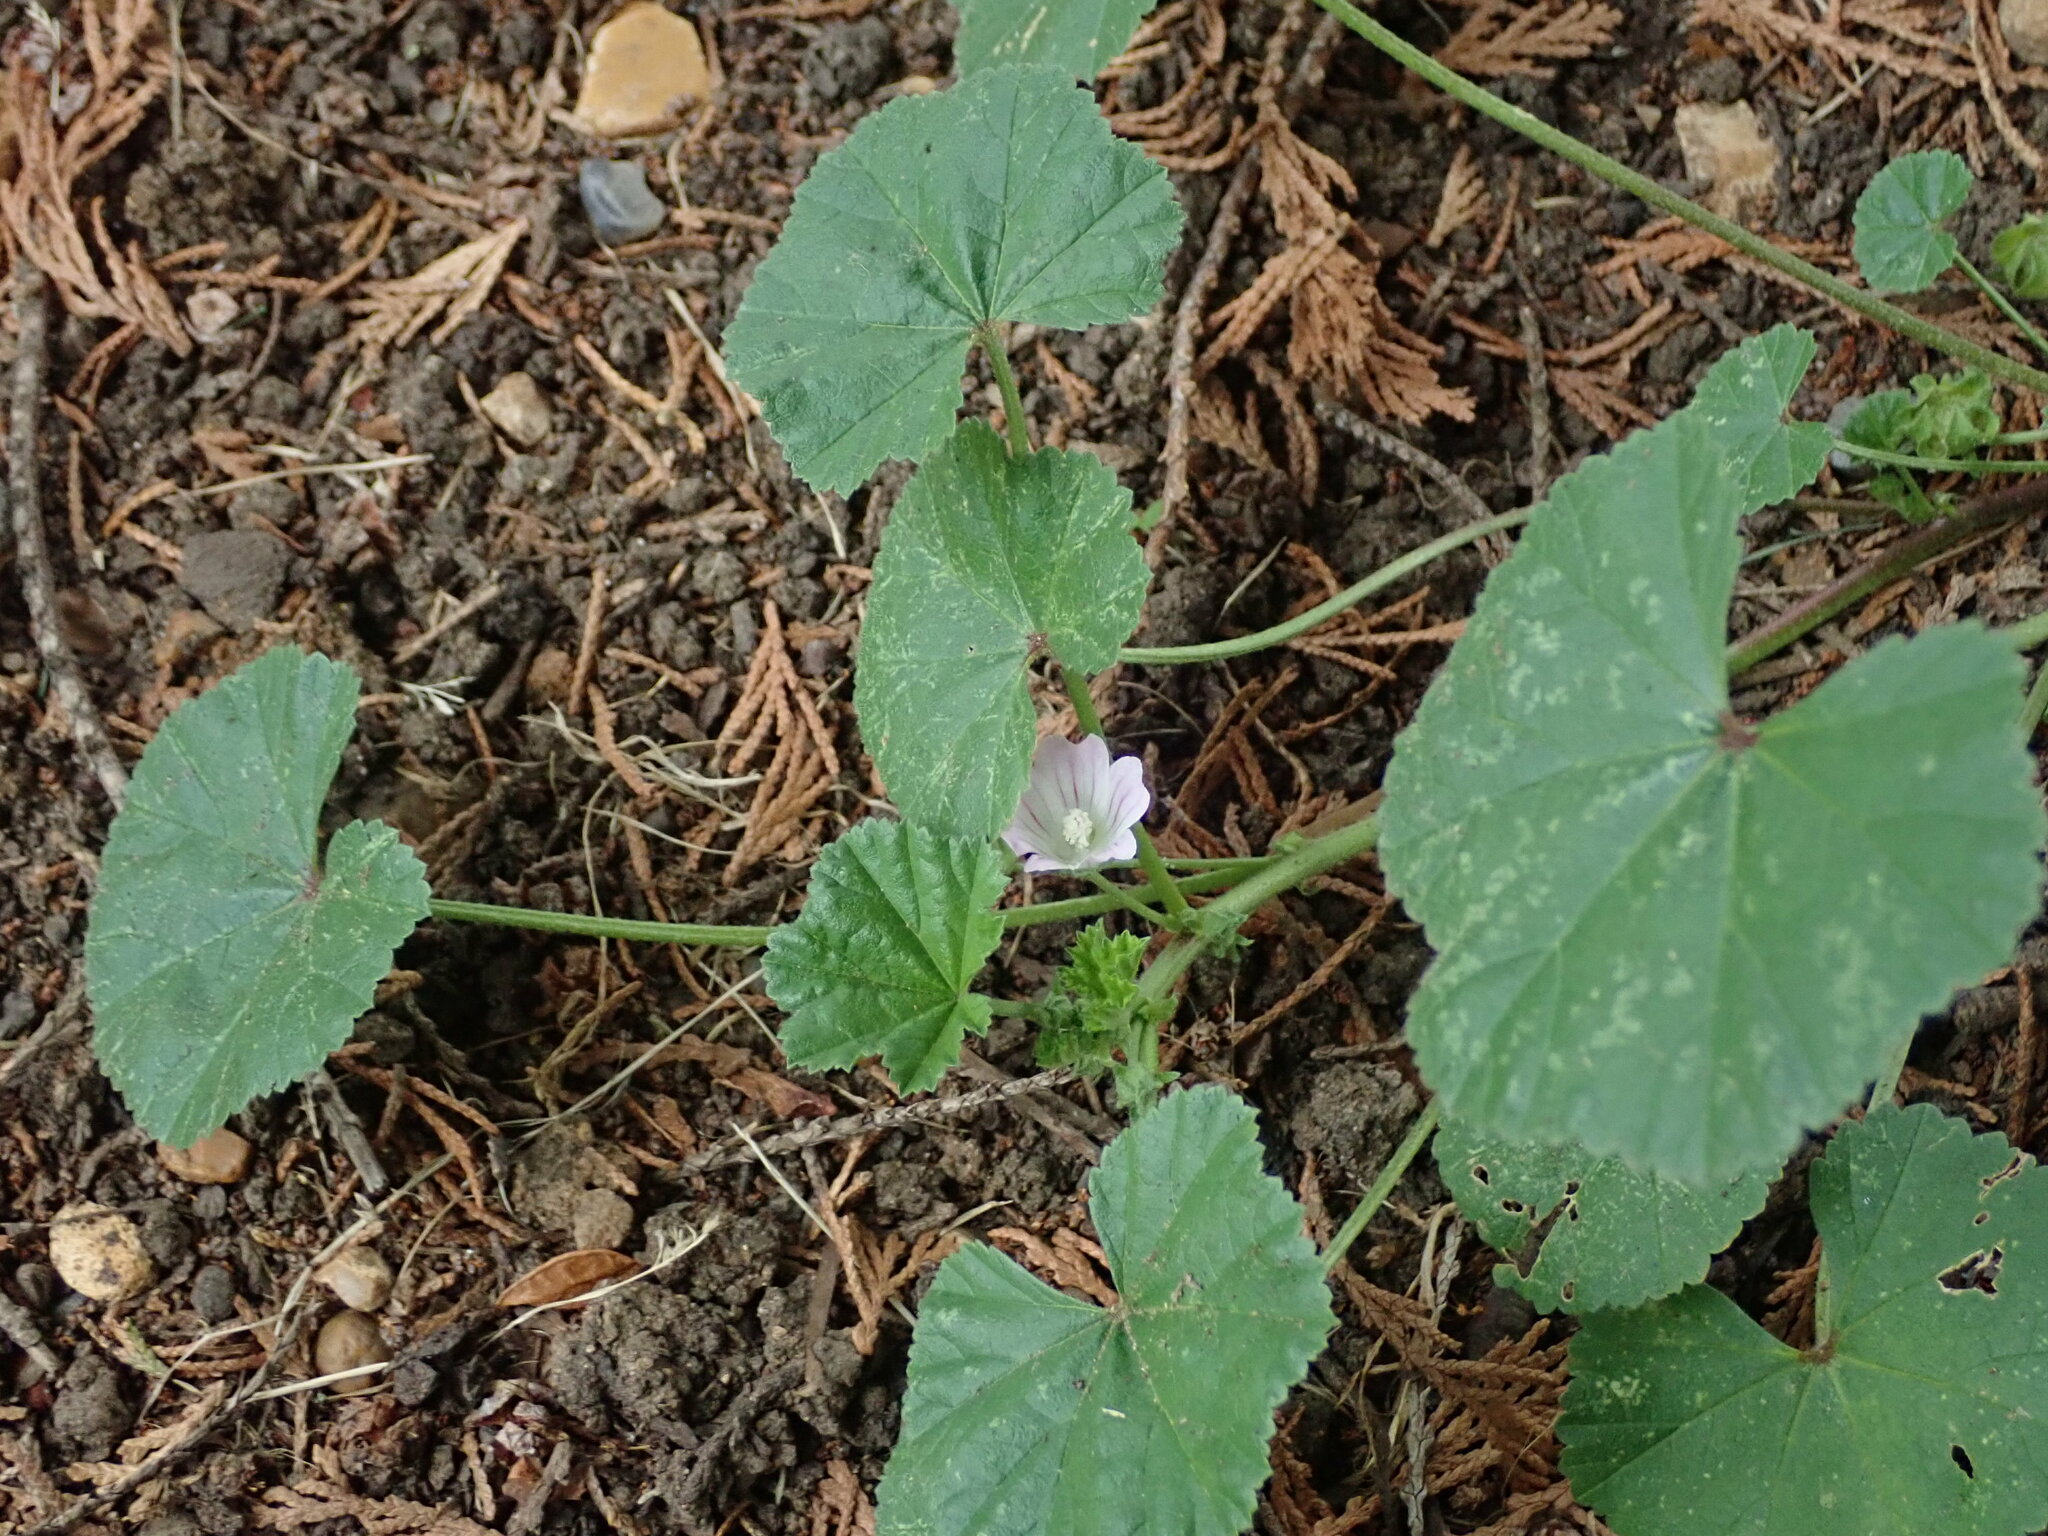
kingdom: Plantae
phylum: Tracheophyta
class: Magnoliopsida
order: Malvales
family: Malvaceae
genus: Malva
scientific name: Malva neglecta
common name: Common mallow
